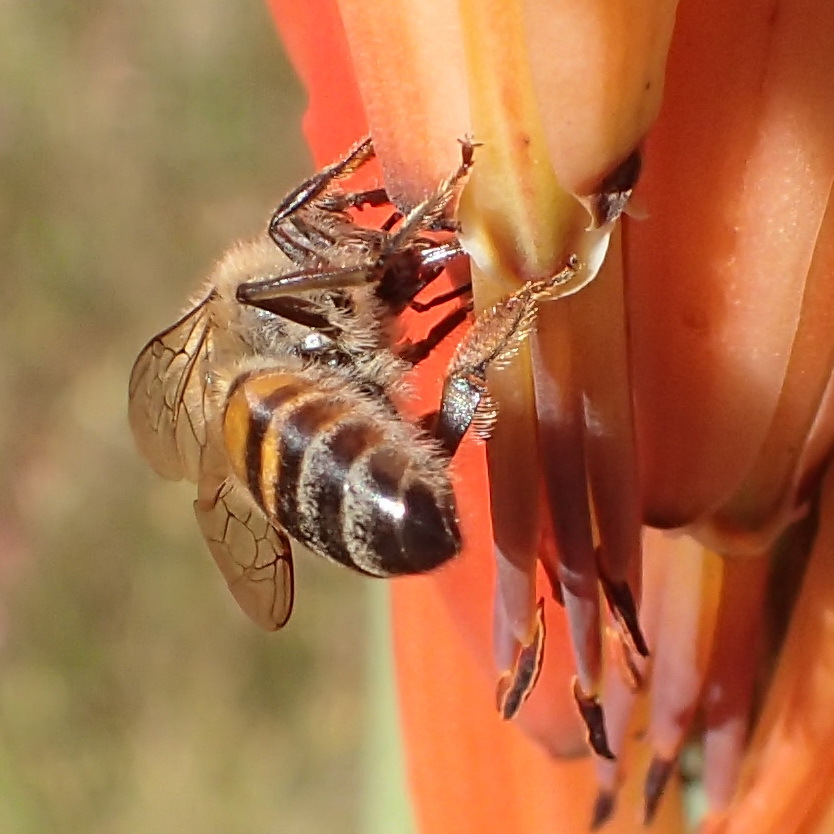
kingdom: Animalia
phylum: Arthropoda
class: Insecta
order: Hymenoptera
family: Apidae
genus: Apis
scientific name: Apis mellifera
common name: Honey bee
